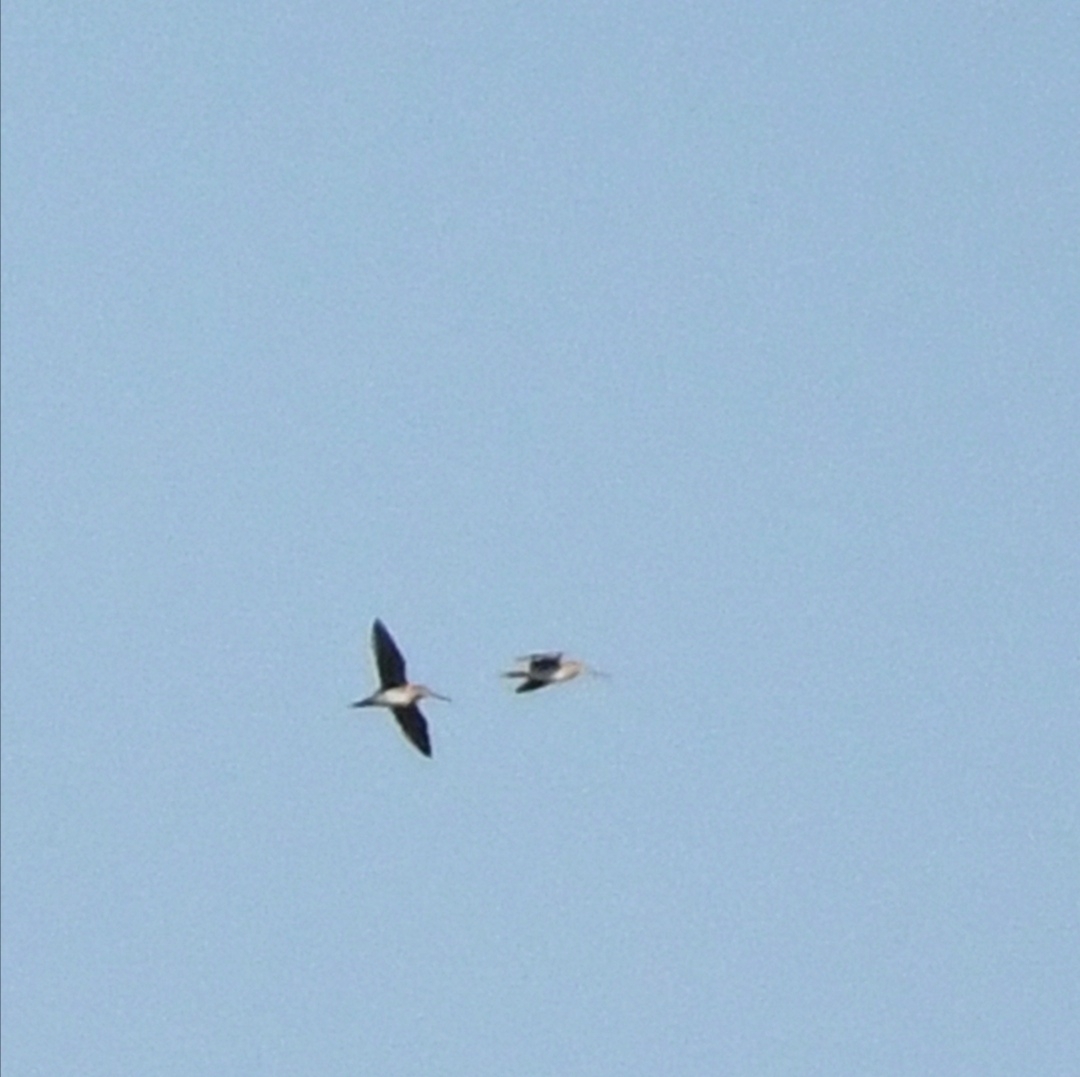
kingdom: Animalia
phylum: Chordata
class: Aves
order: Charadriiformes
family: Scolopacidae
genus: Gallinago
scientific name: Gallinago delicata
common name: Wilson's snipe
